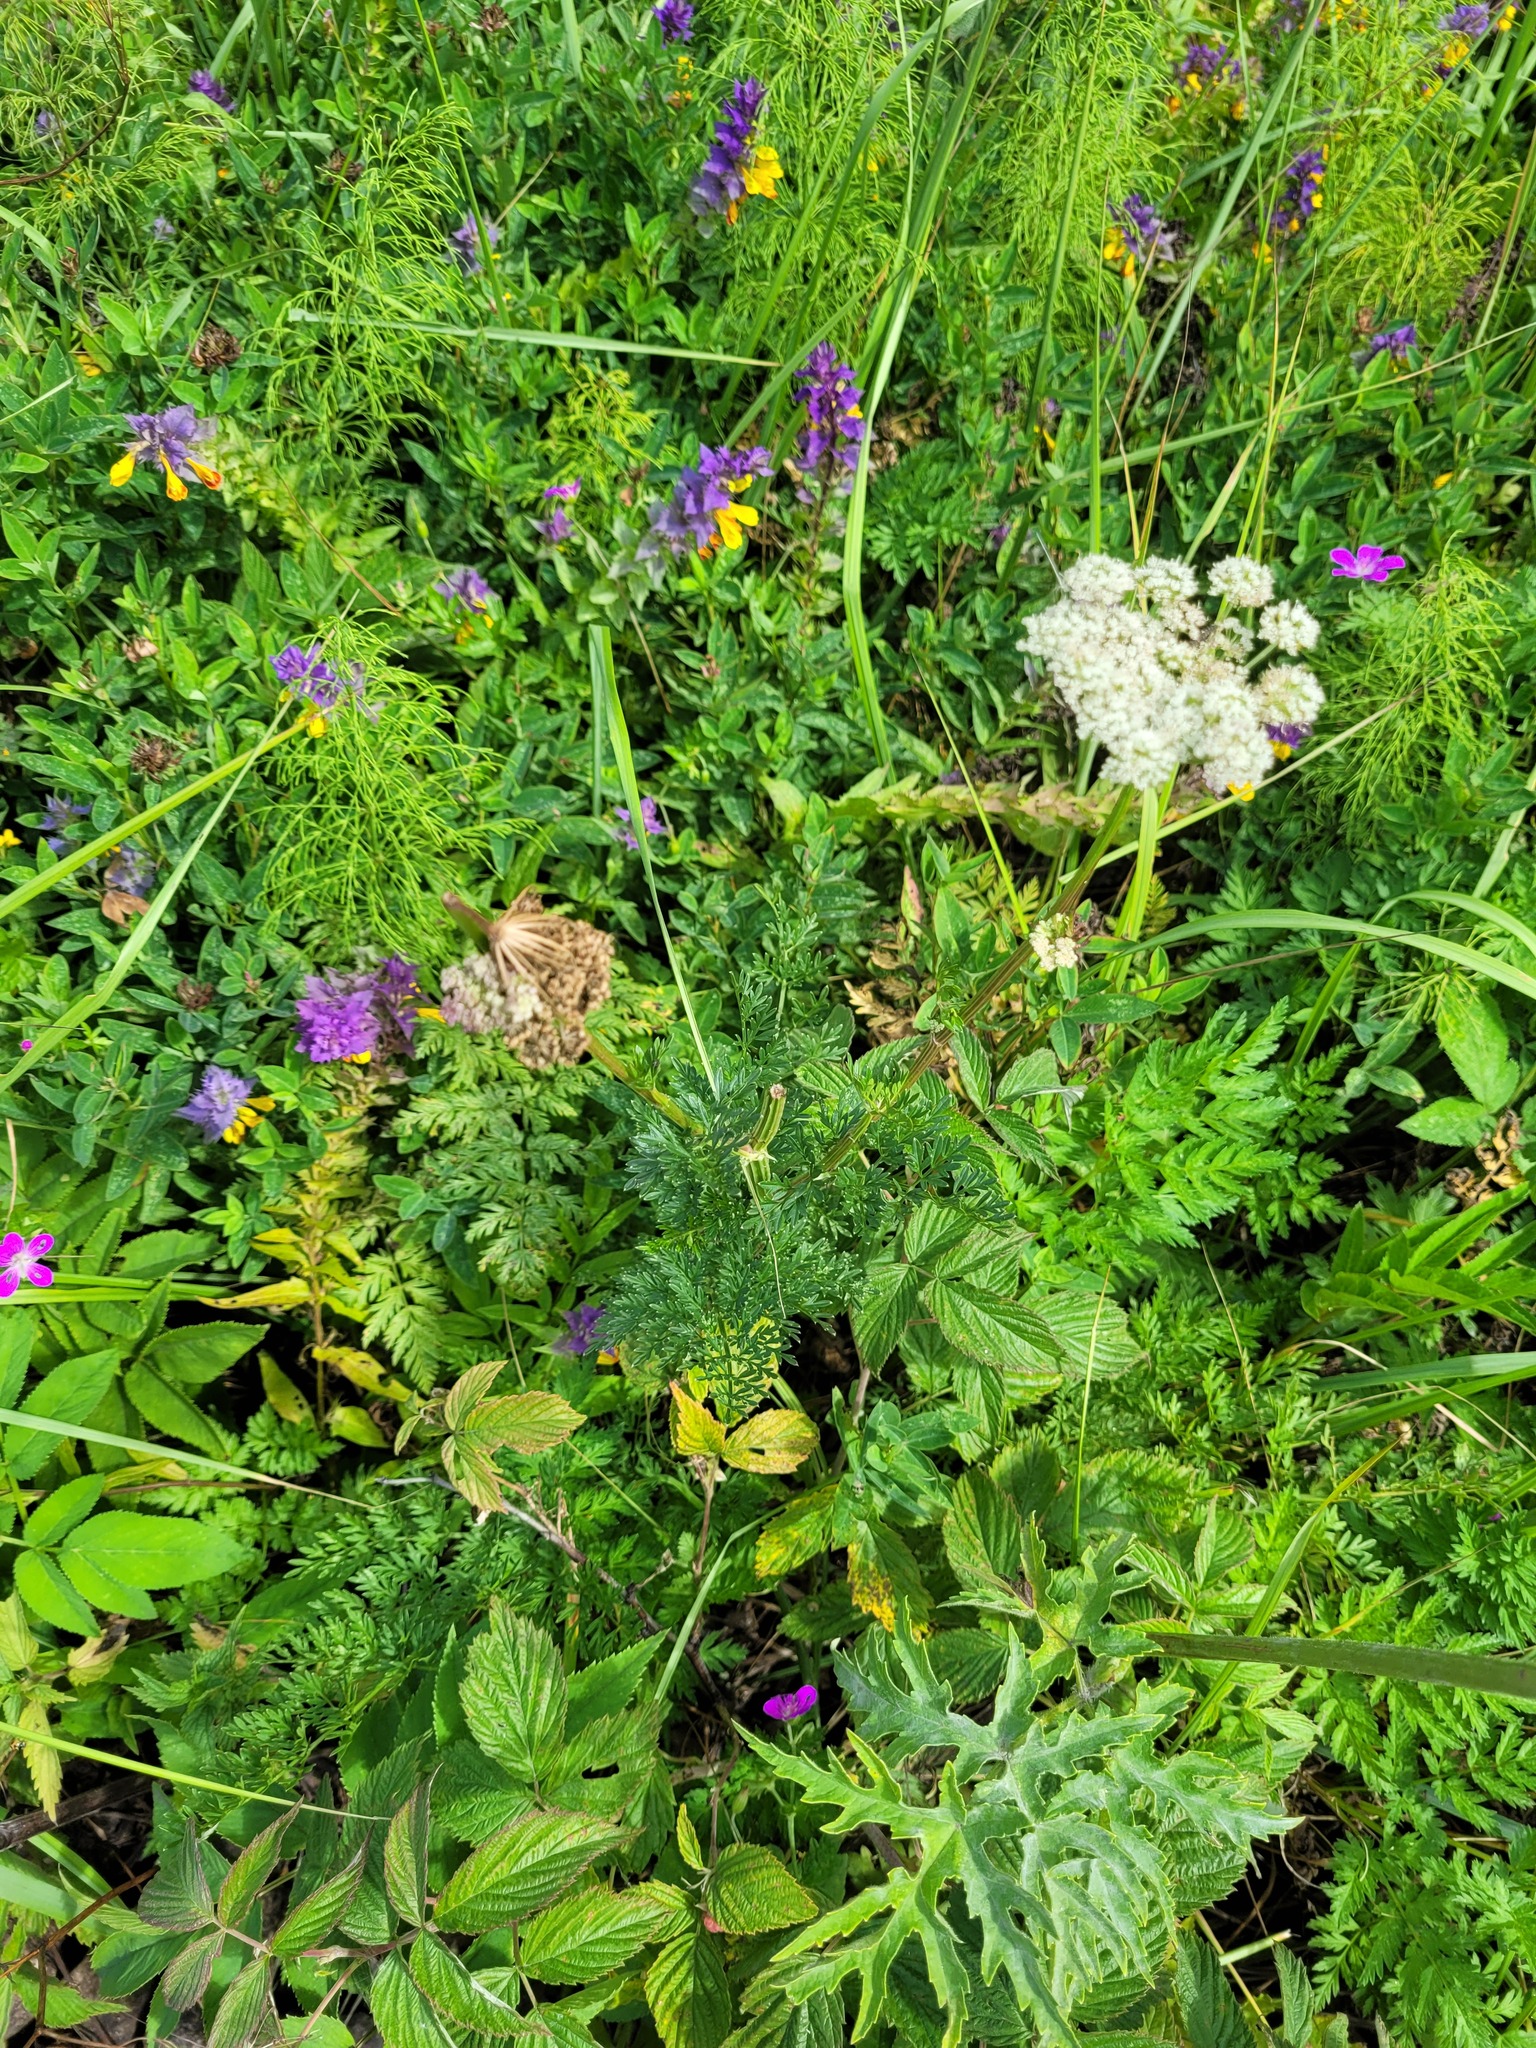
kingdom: Plantae
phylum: Tracheophyta
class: Magnoliopsida
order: Apiales
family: Apiaceae
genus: Selinum
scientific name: Selinum carvifolia
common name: Cambridge milk-parsley
